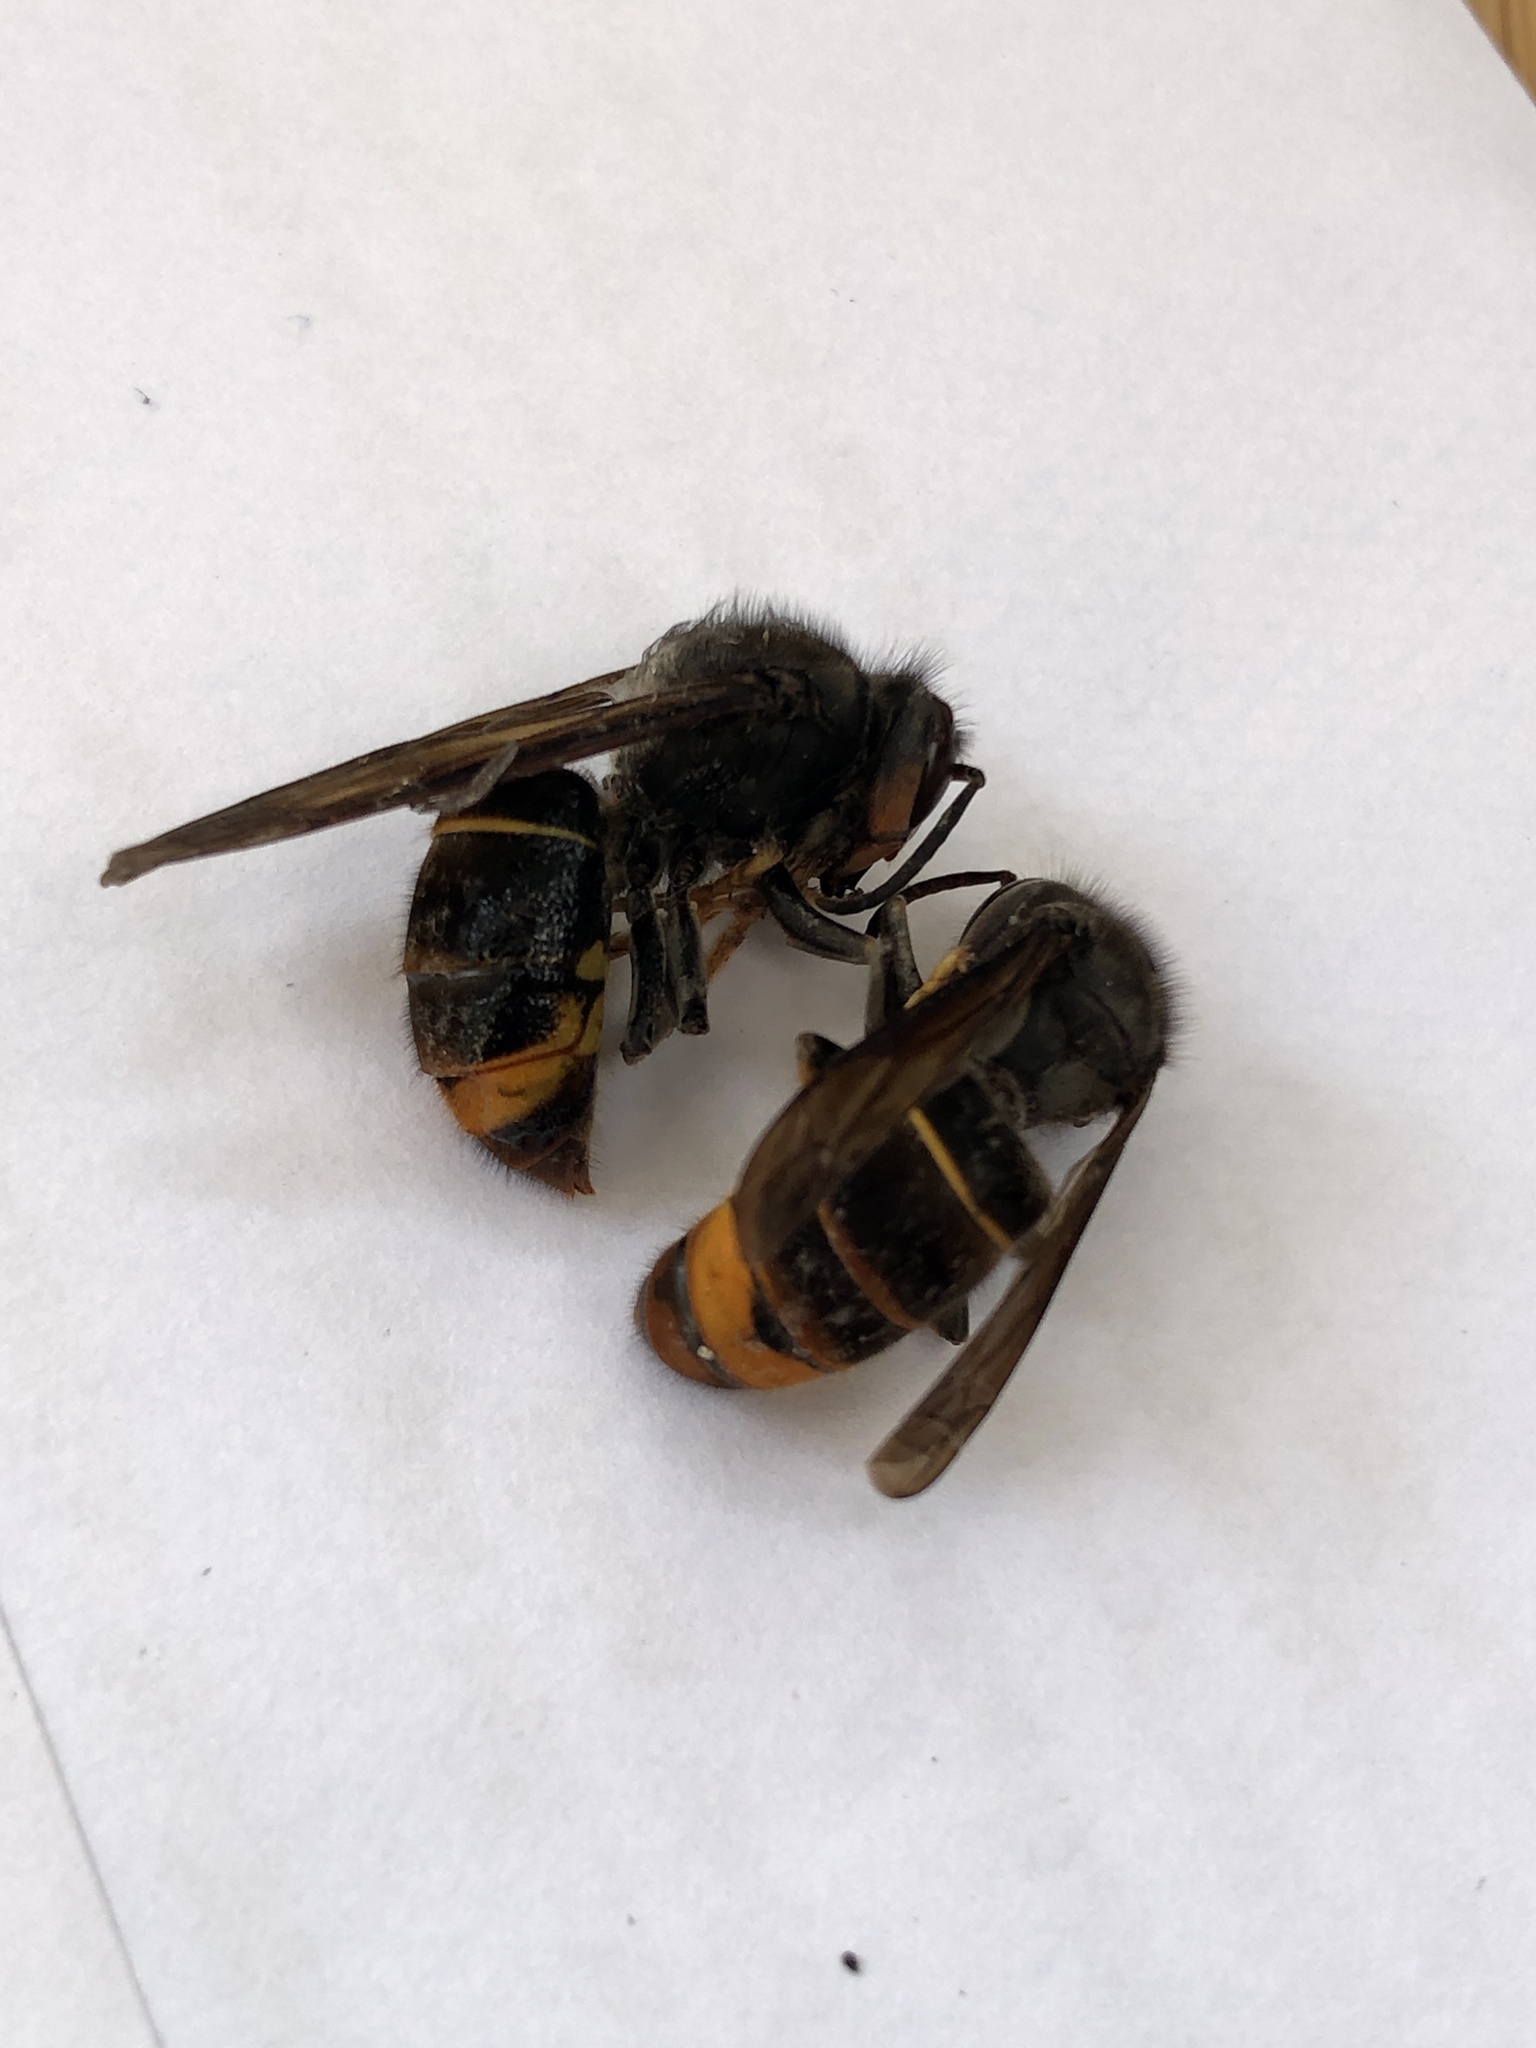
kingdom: Animalia
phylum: Arthropoda
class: Insecta
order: Hymenoptera
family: Vespidae
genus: Vespa
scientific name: Vespa velutina
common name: Asian hornet
